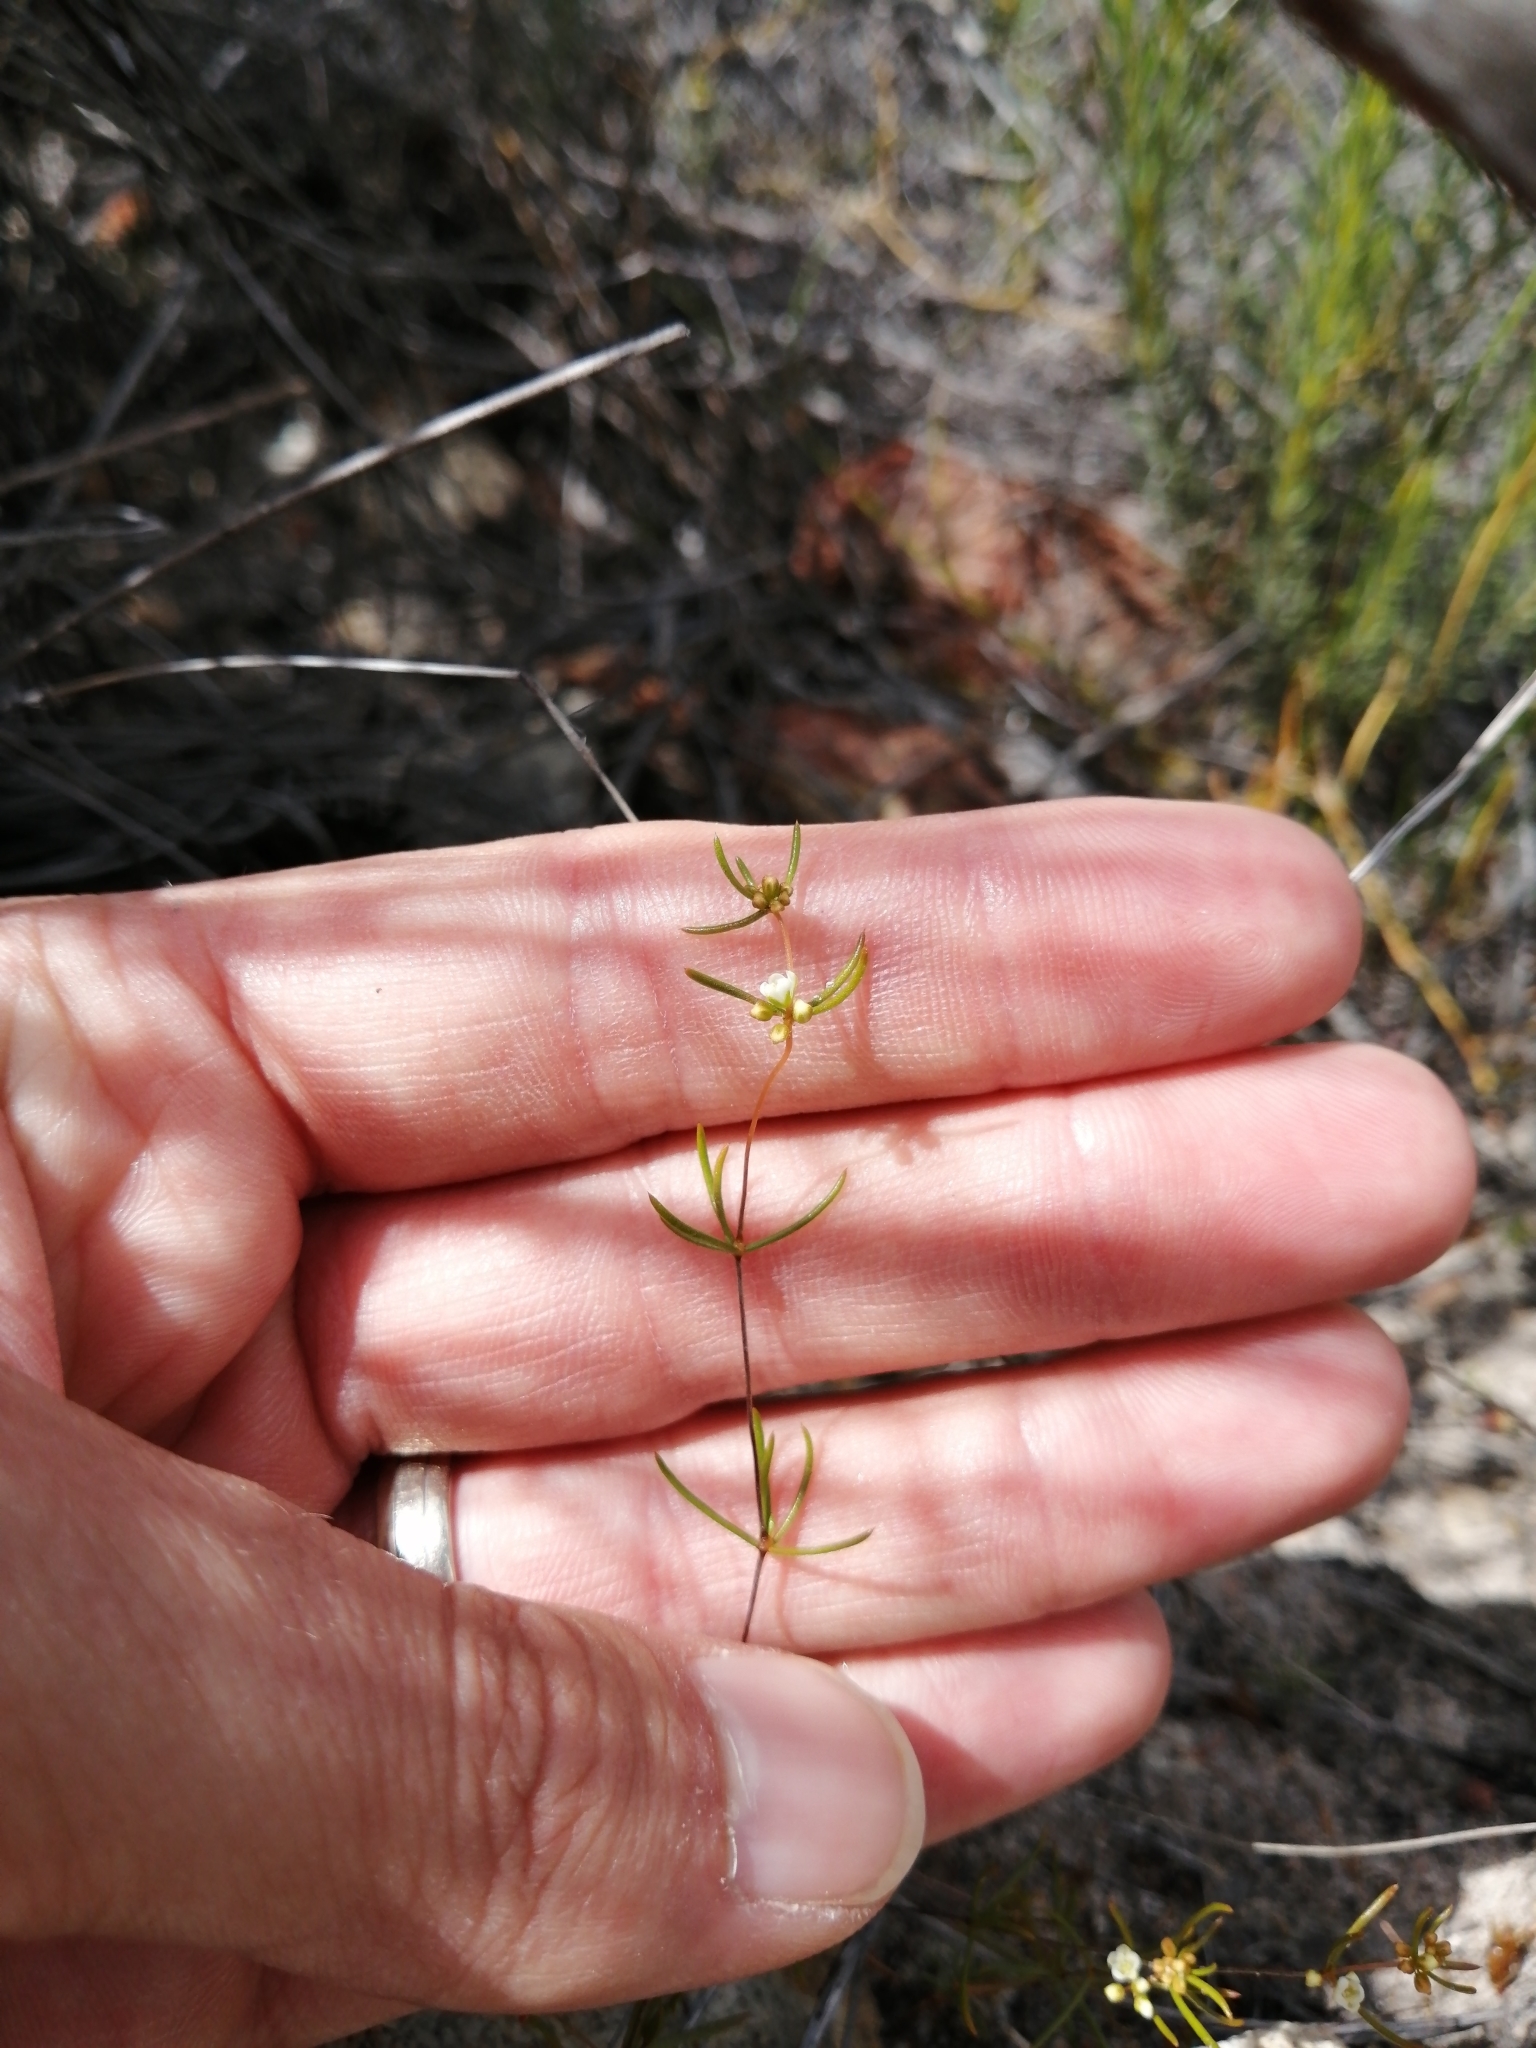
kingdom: Plantae
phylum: Tracheophyta
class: Magnoliopsida
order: Caryophyllales
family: Molluginaceae
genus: Adenogramma
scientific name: Adenogramma lichtensteiniana
